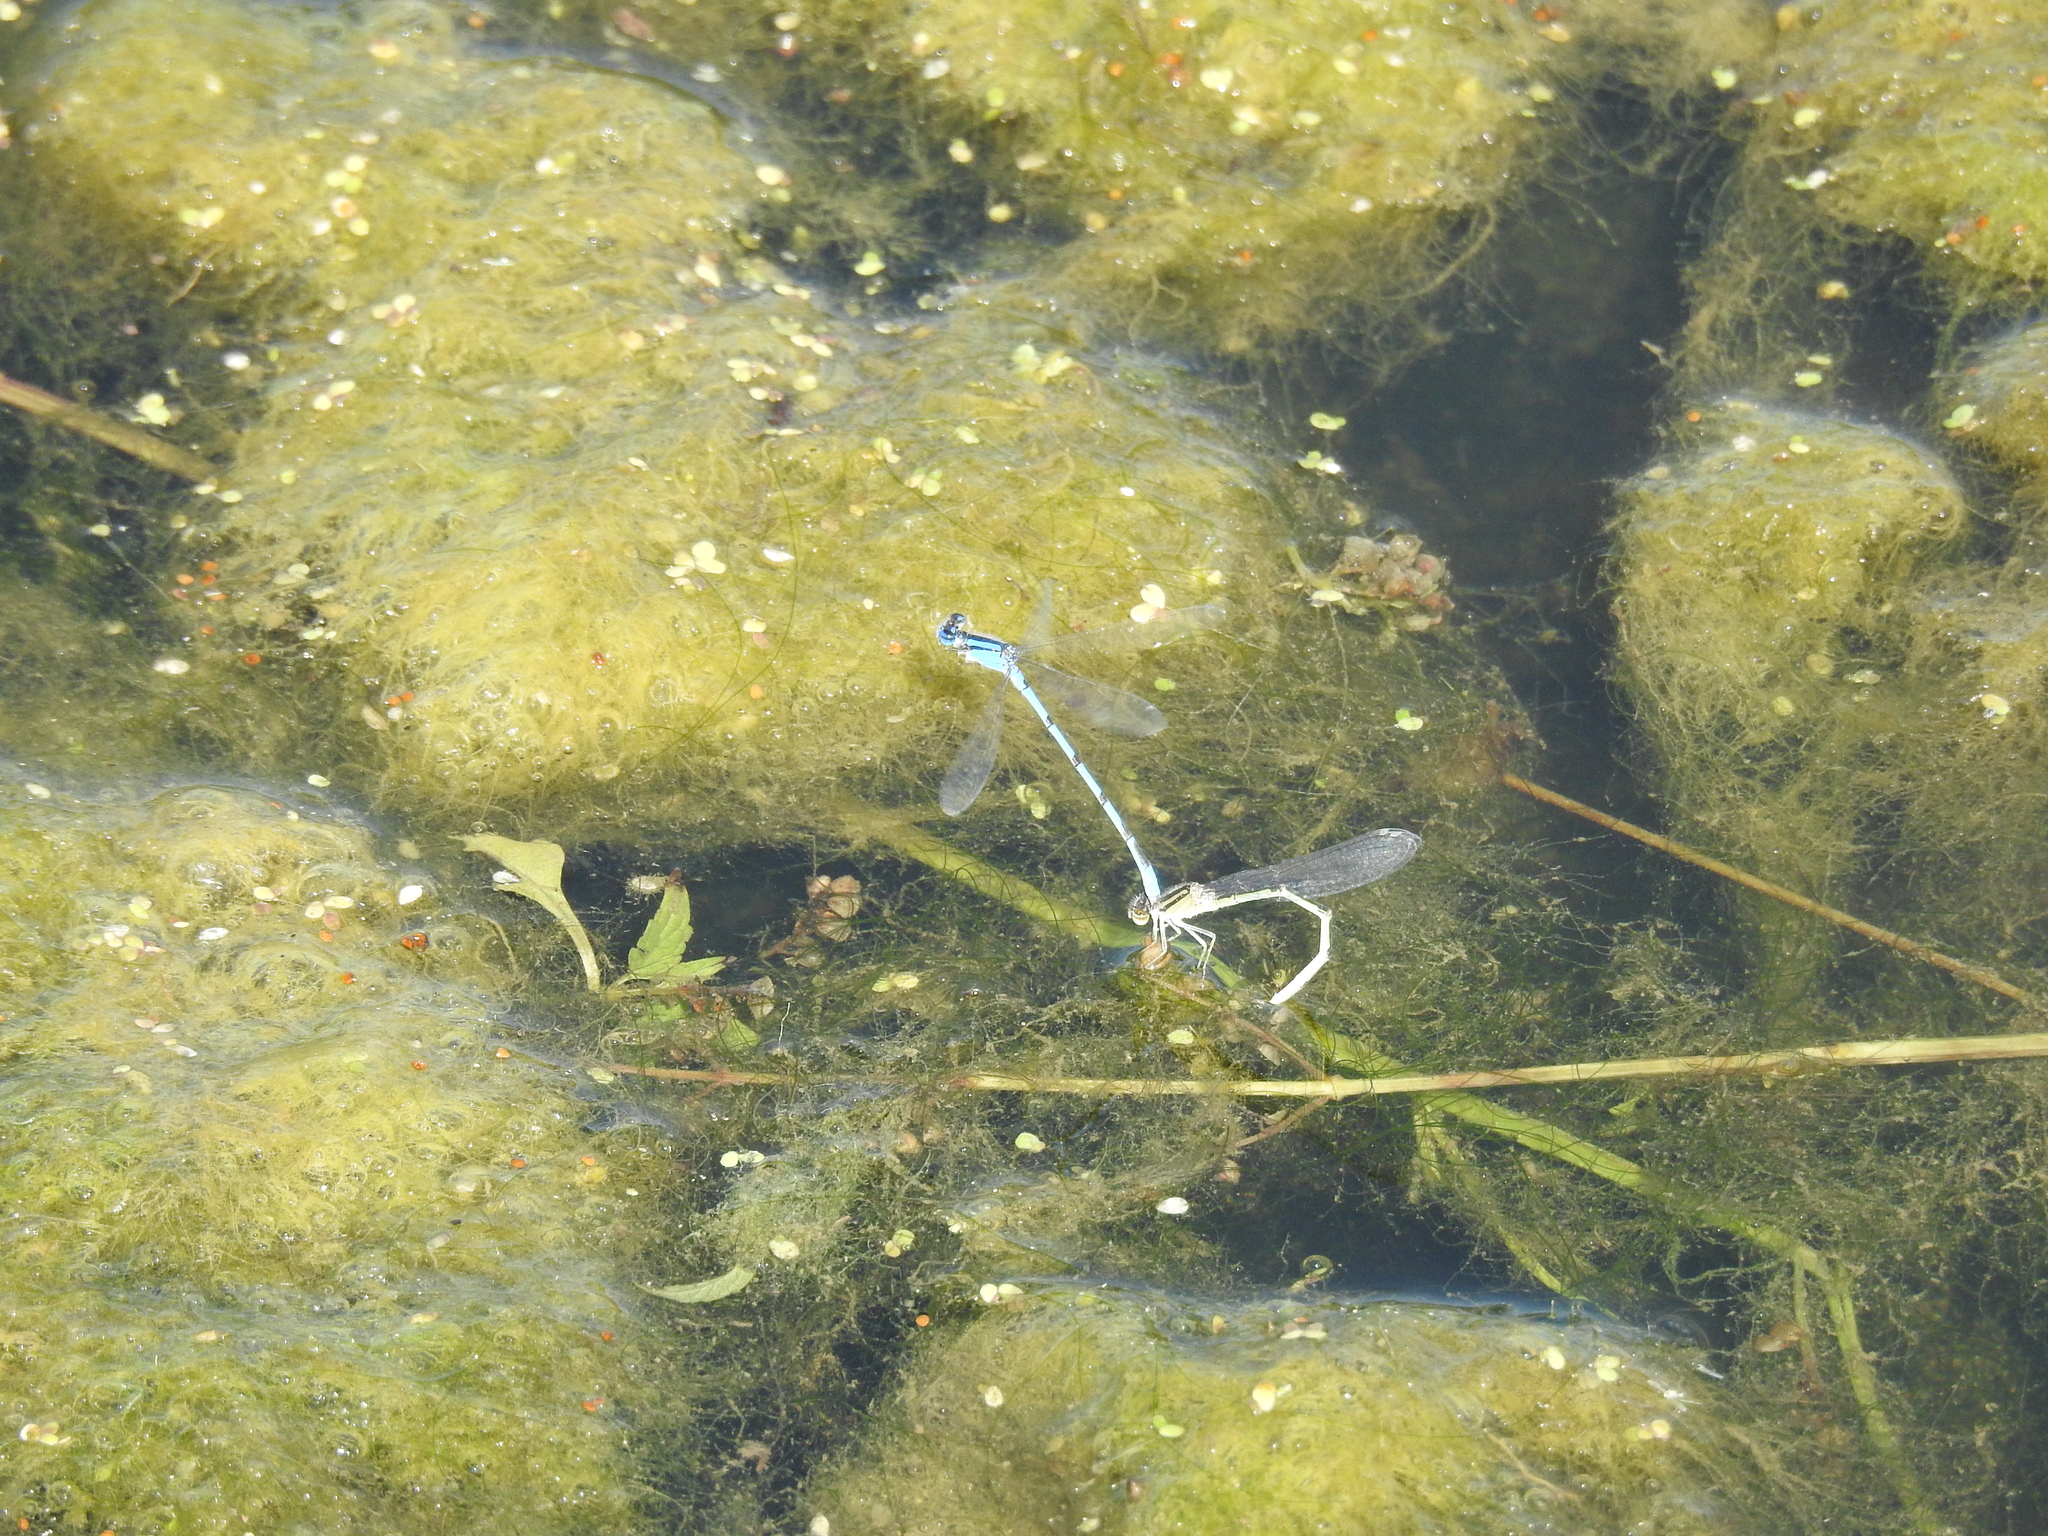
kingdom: Animalia
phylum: Arthropoda
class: Insecta
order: Odonata
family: Coenagrionidae
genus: Enallagma
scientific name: Enallagma basidens
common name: Double-striped bluet
